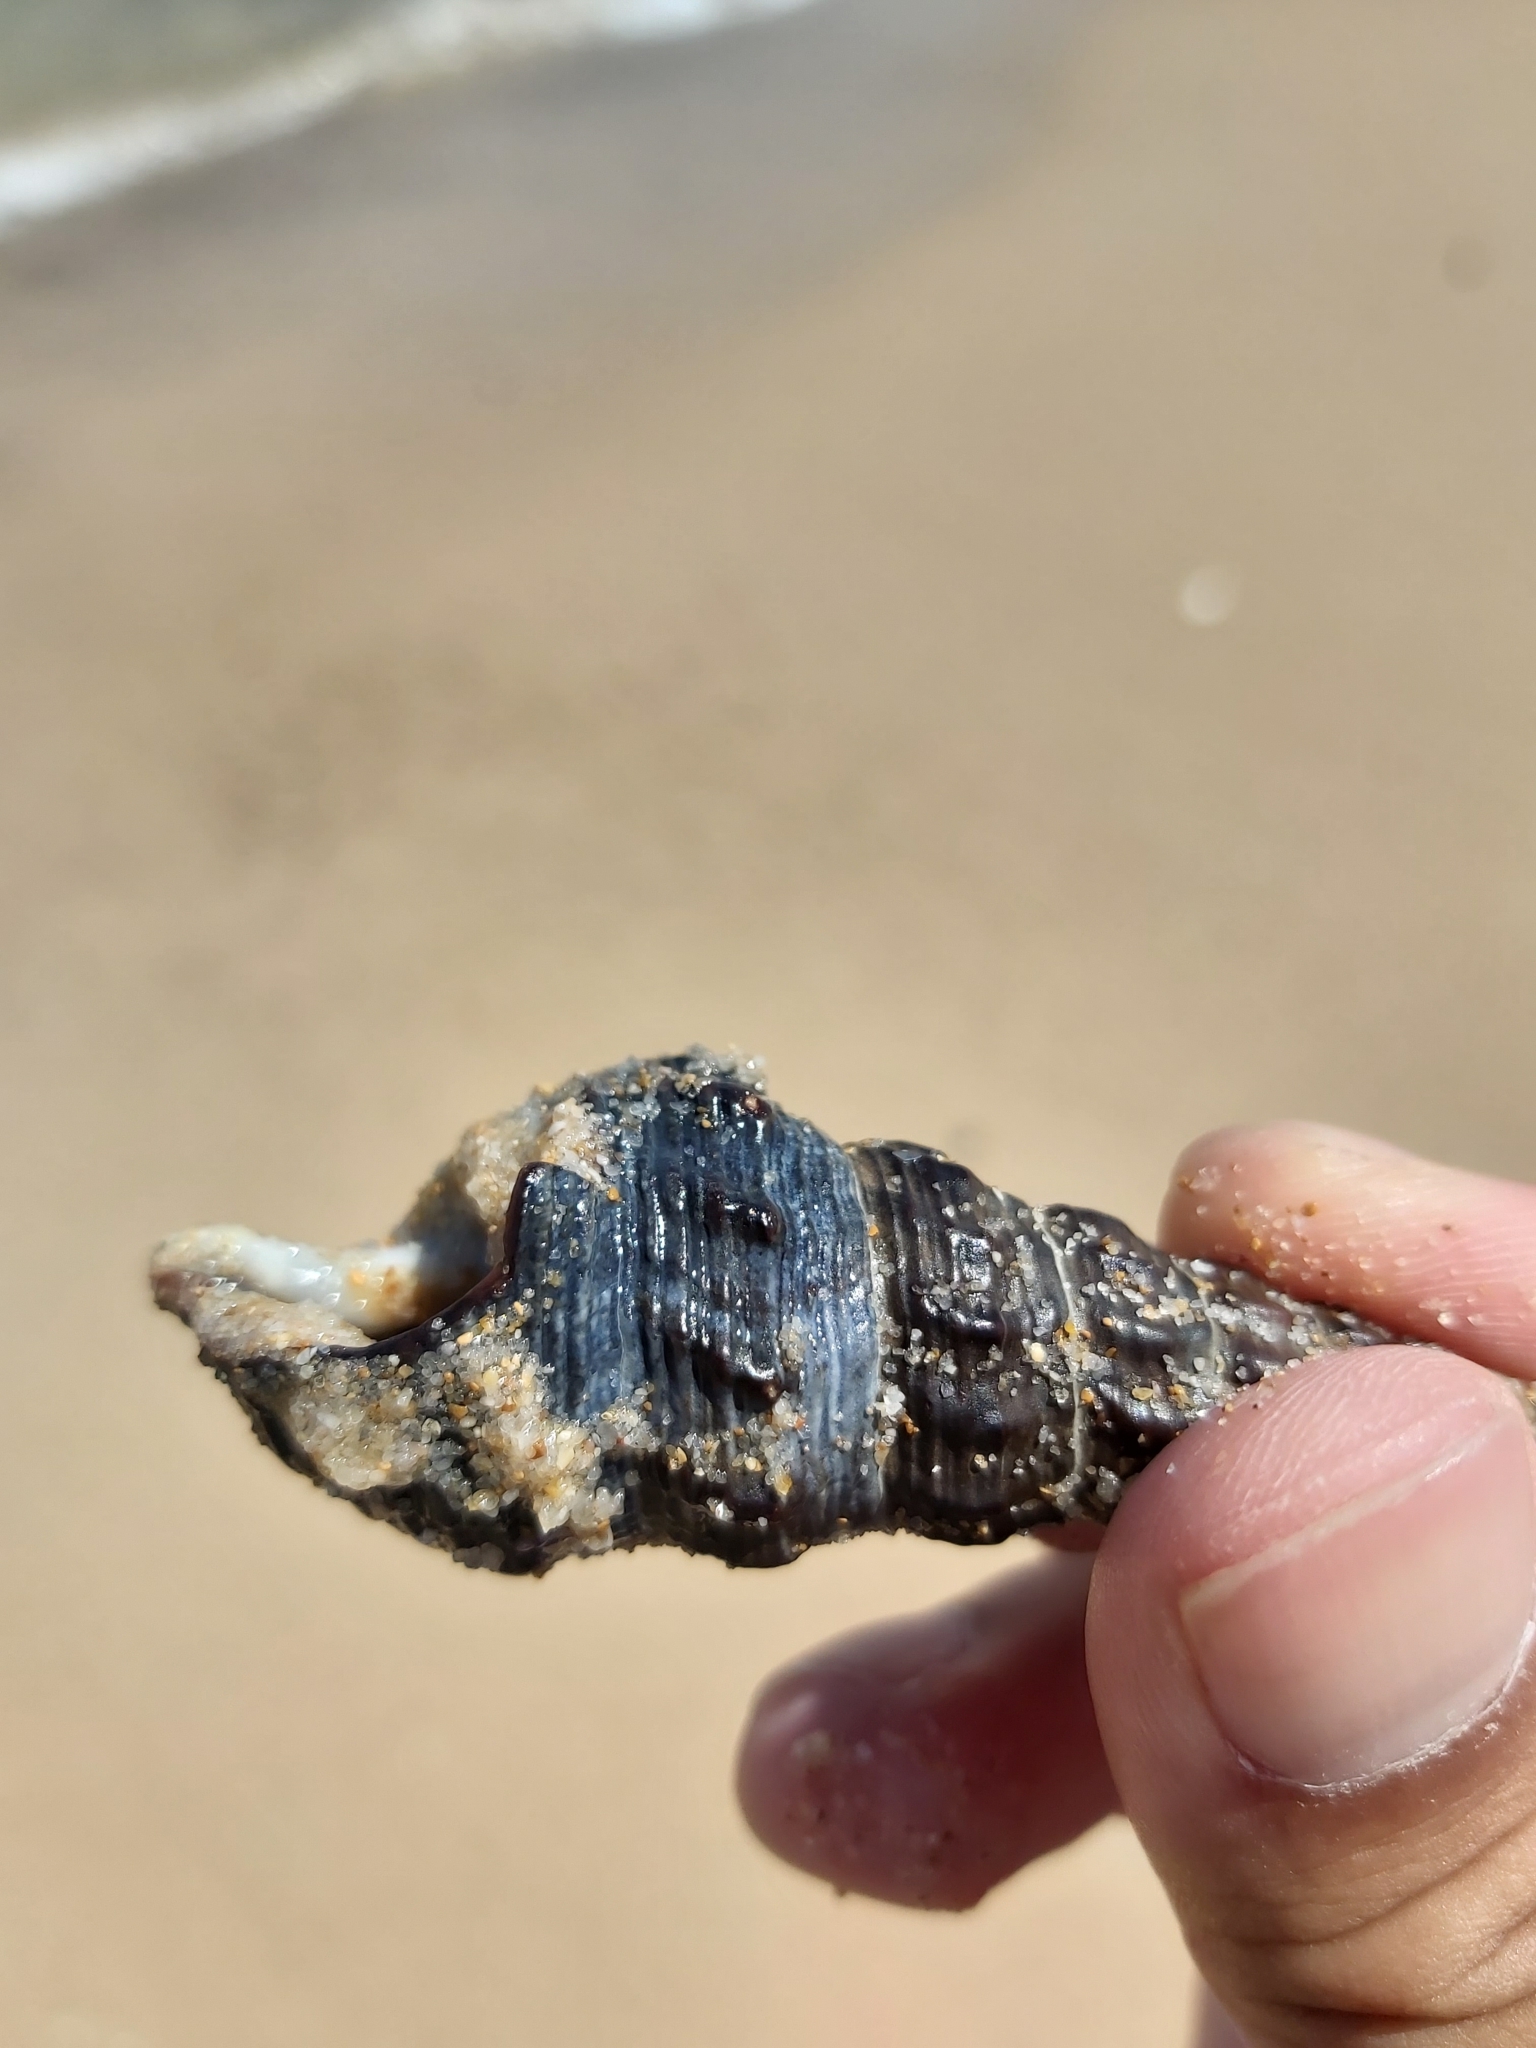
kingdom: Animalia
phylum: Mollusca
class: Gastropoda
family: Batillariidae
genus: Pyrazus
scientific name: Pyrazus ebeninus
